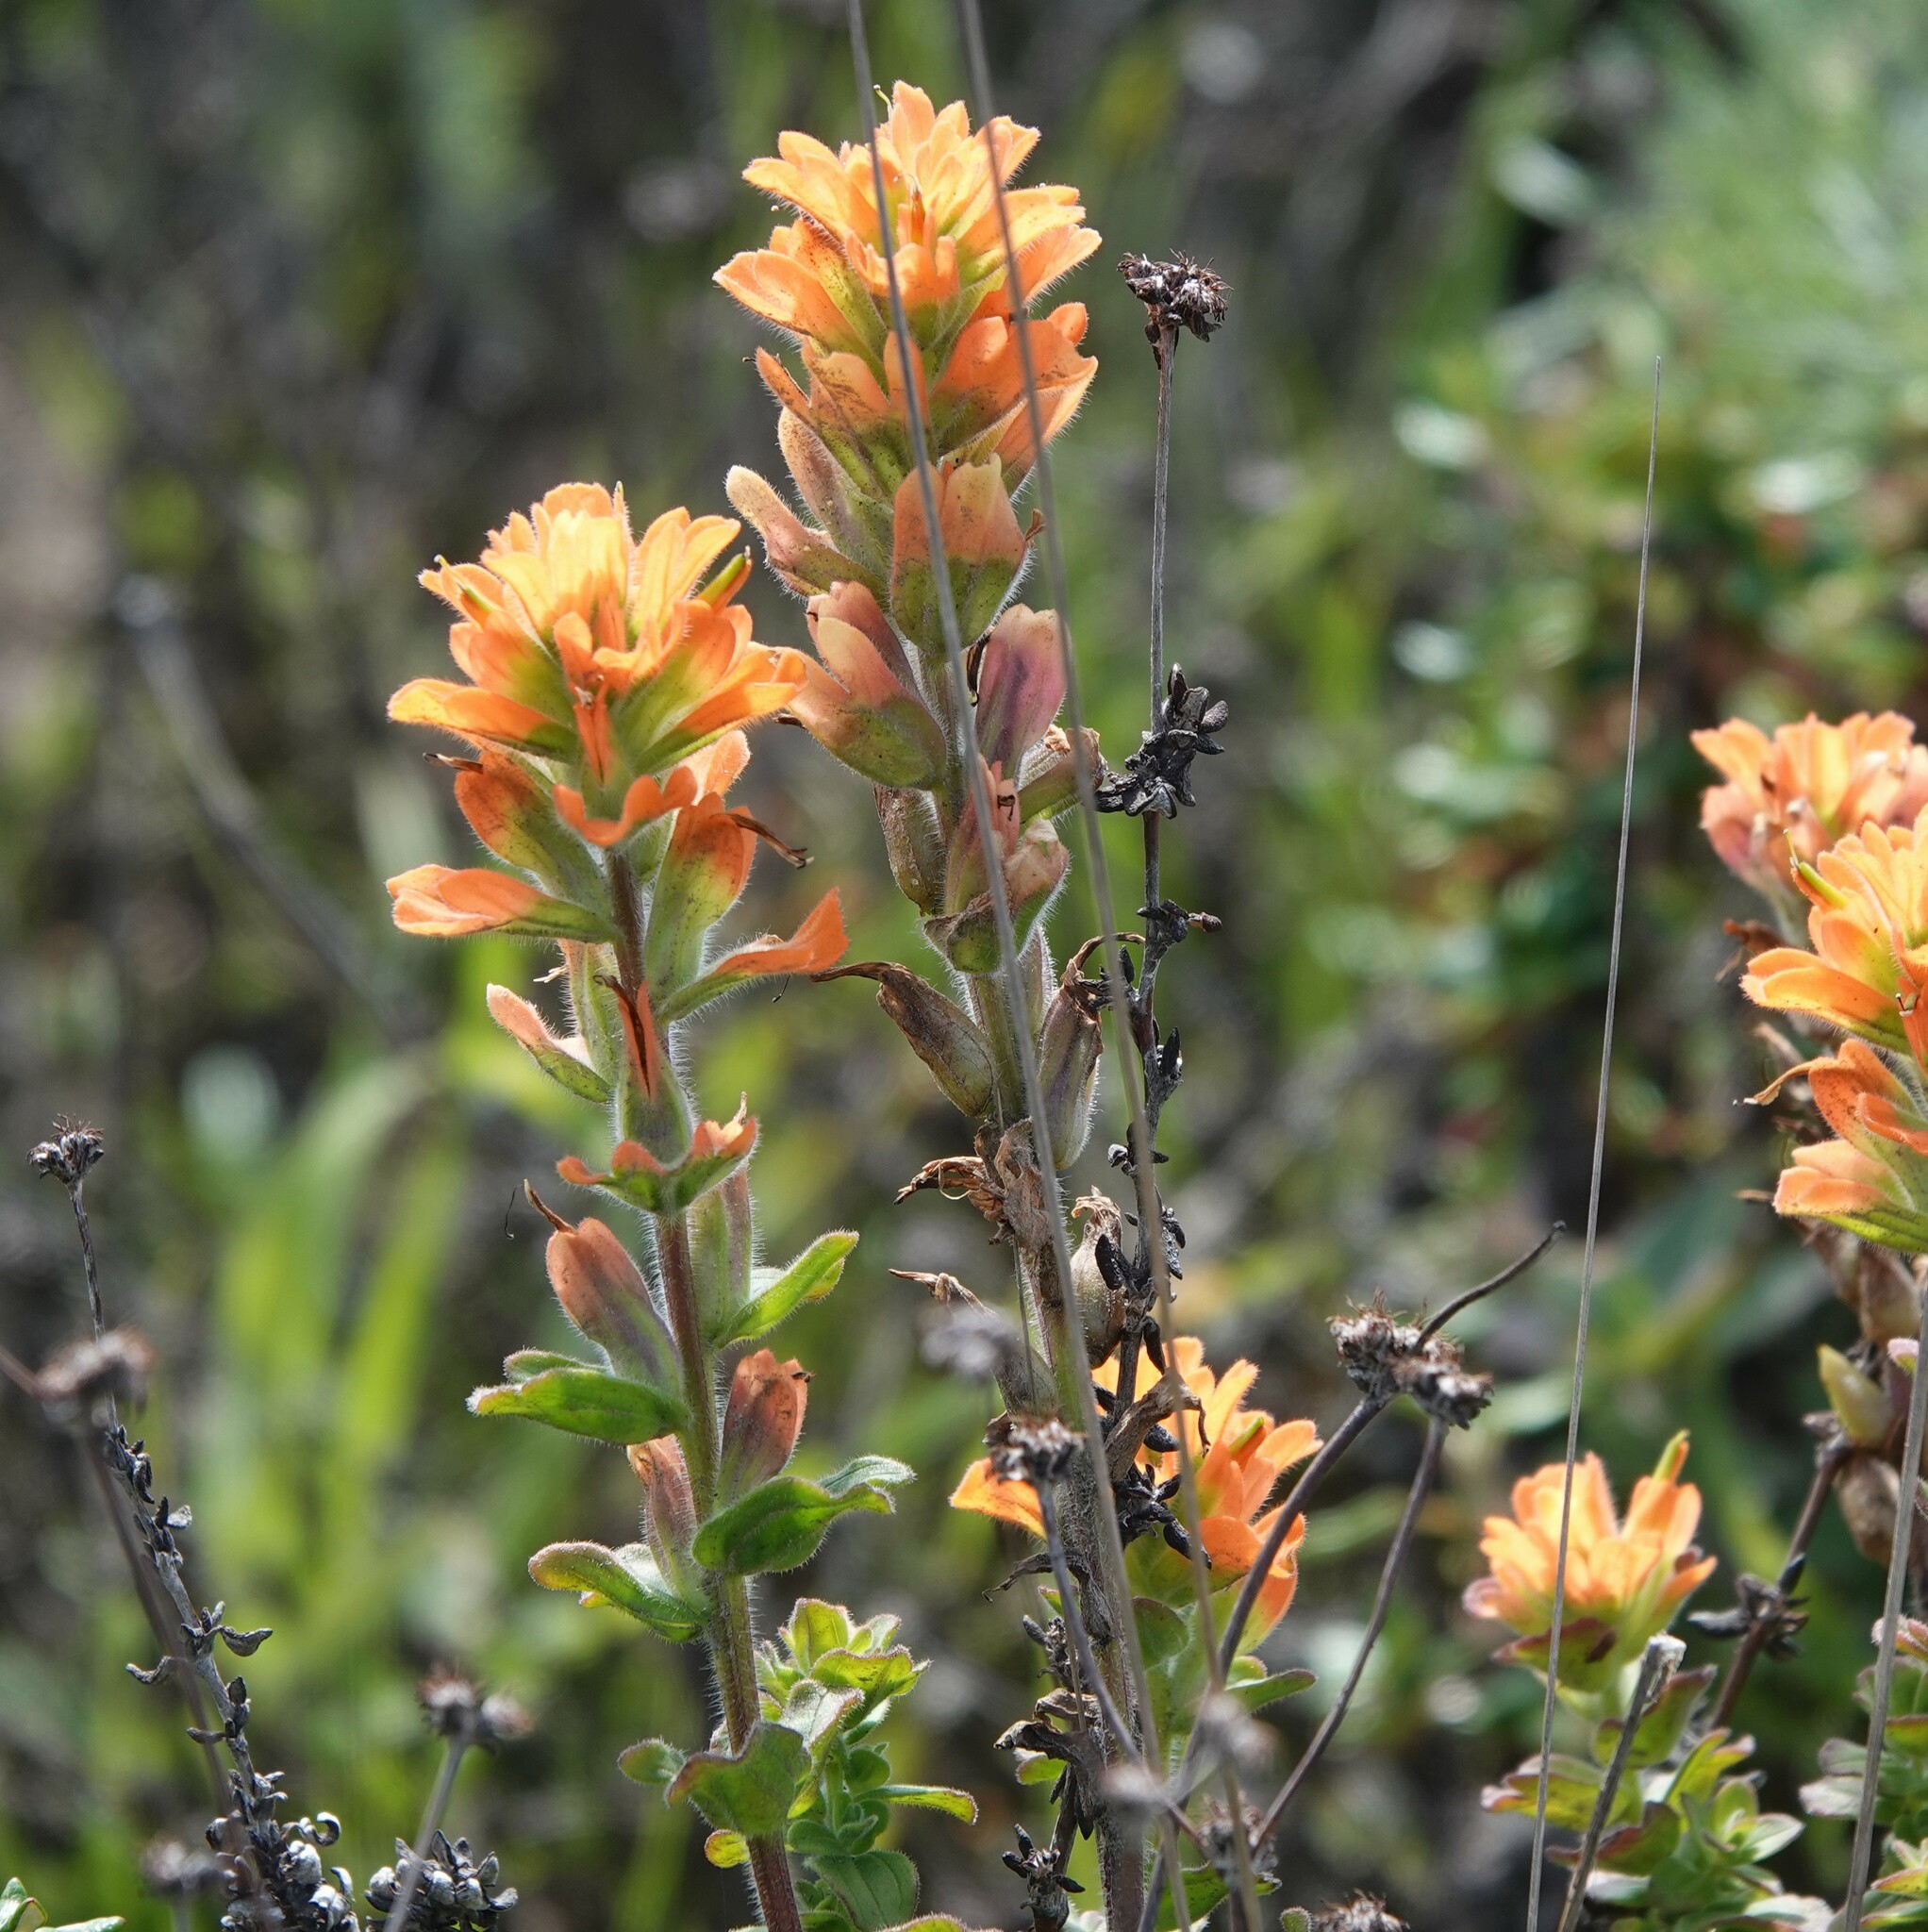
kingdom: Plantae
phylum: Tracheophyta
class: Magnoliopsida
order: Lamiales
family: Orobanchaceae
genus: Castilleja
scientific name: Castilleja latifolia
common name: Monterey indian paintbrush
